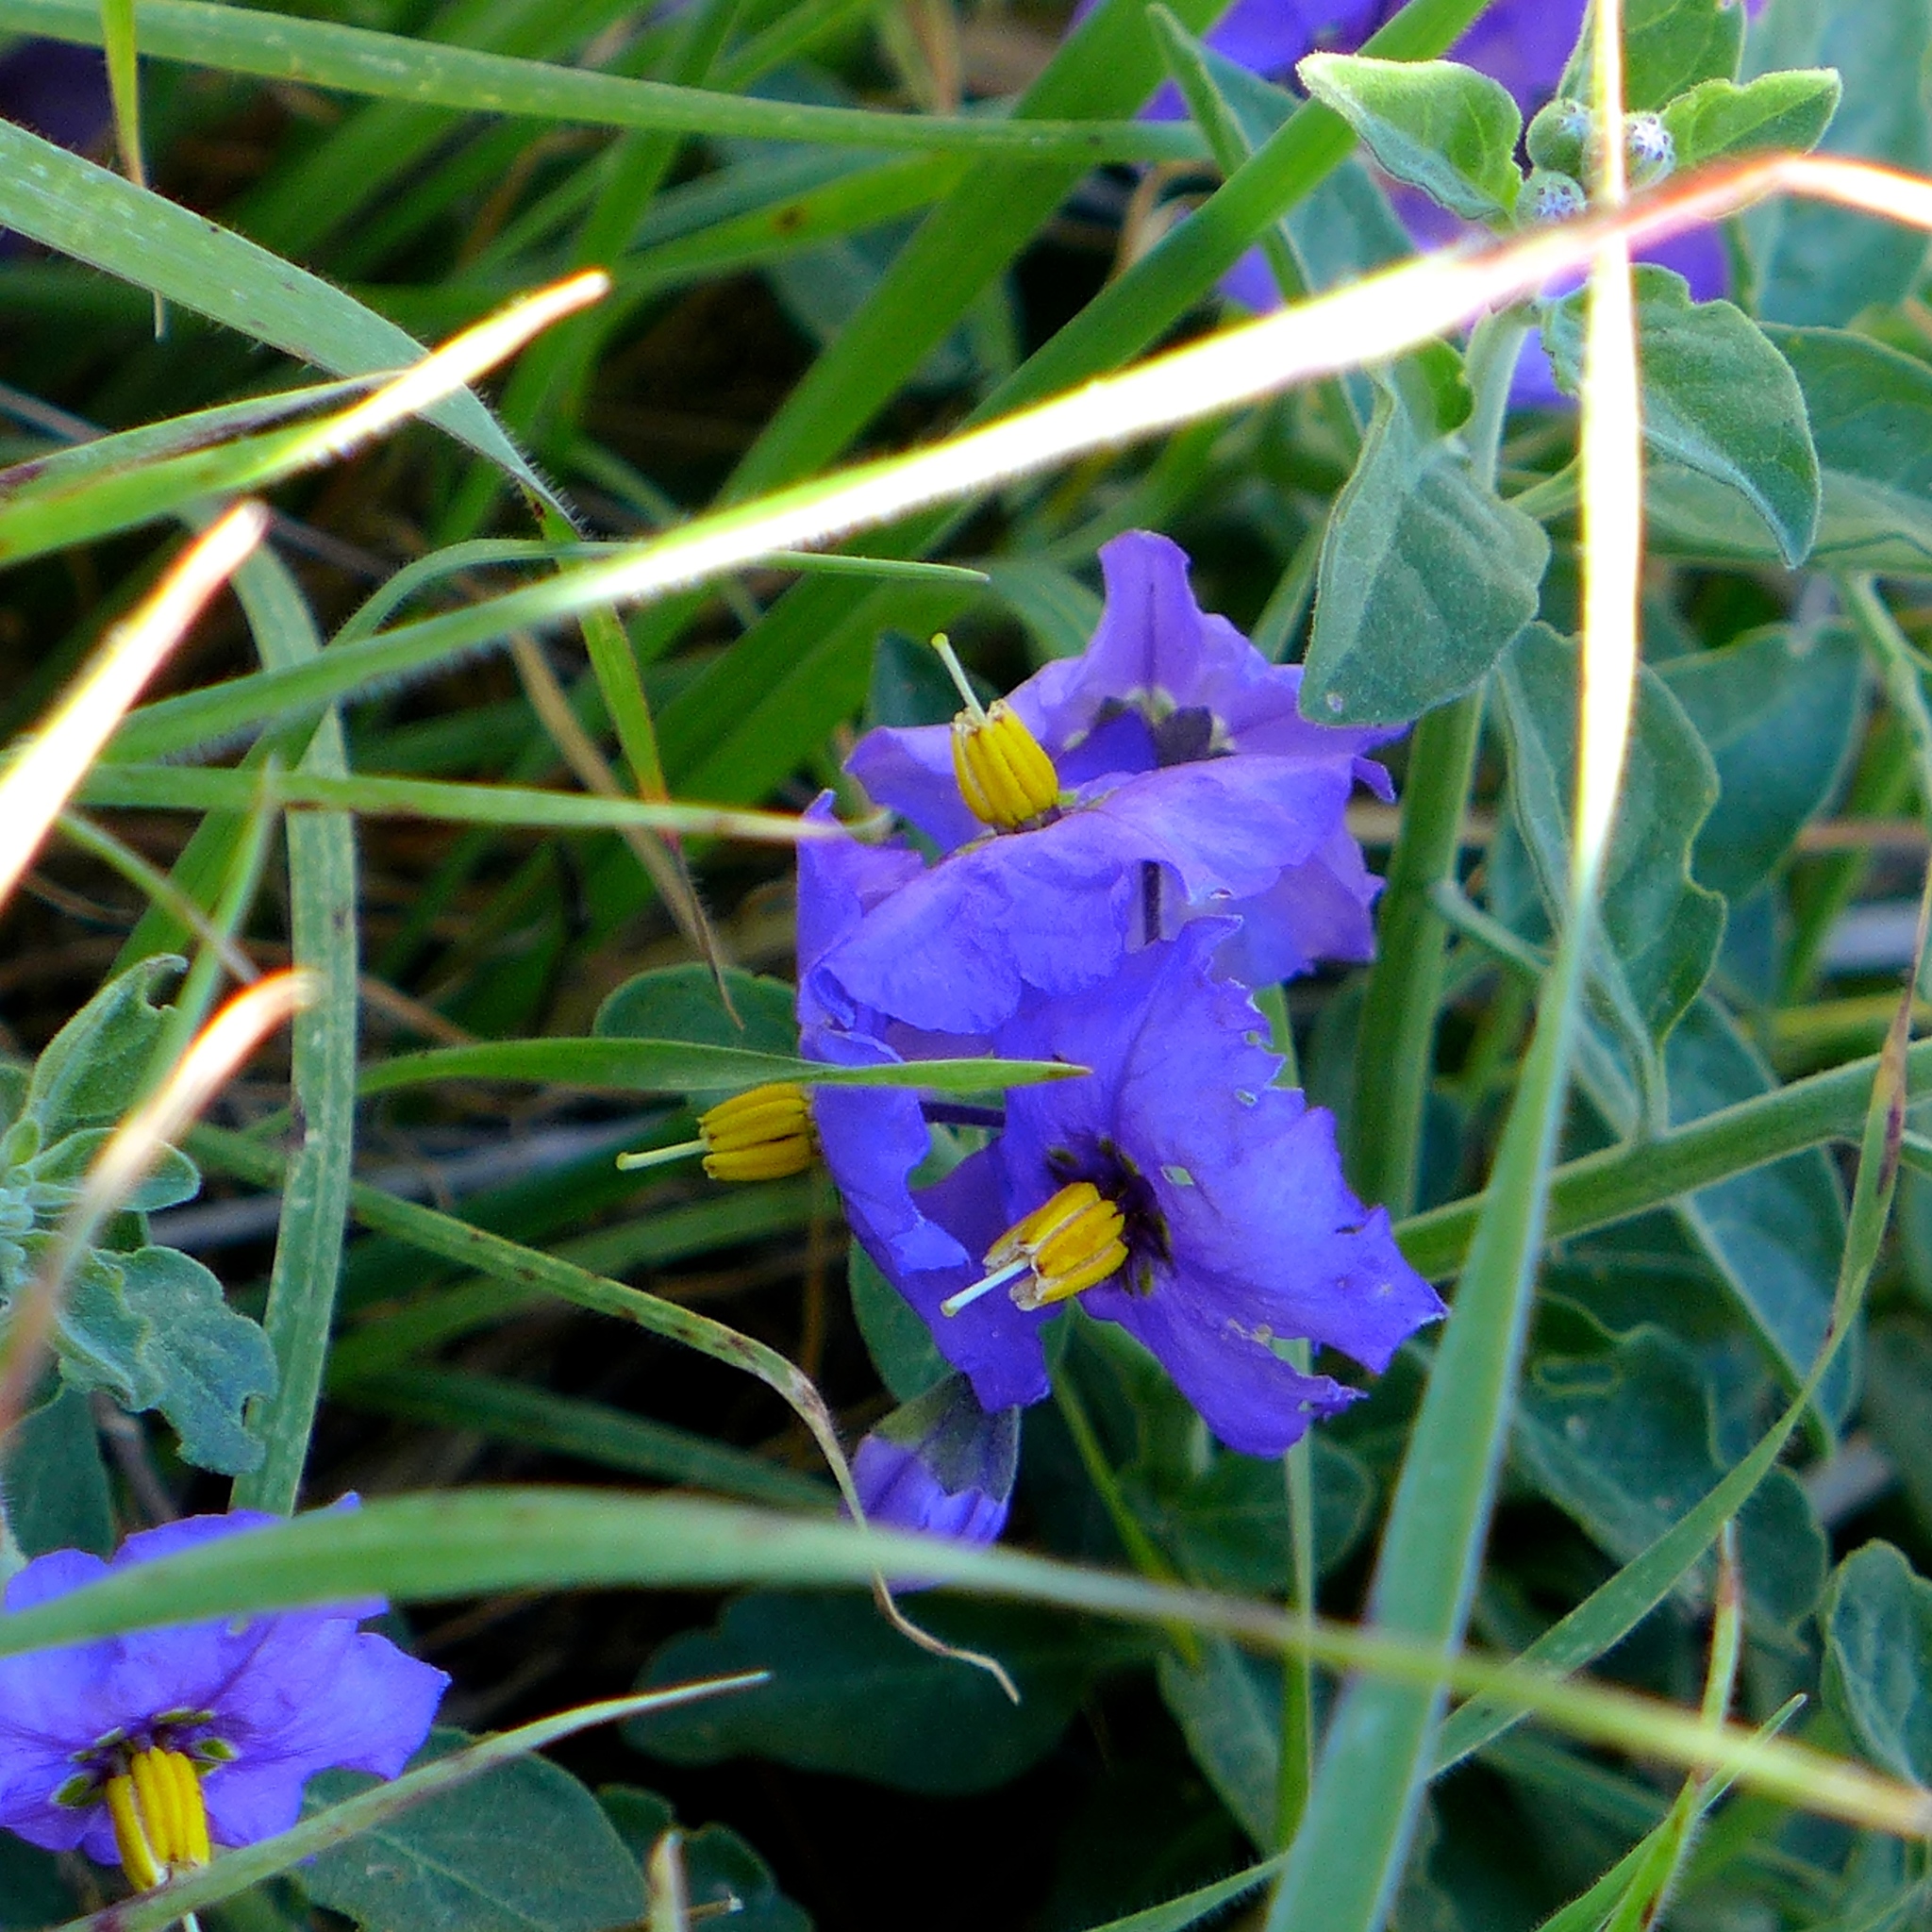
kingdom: Plantae
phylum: Tracheophyta
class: Magnoliopsida
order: Solanales
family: Solanaceae
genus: Solanum
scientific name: Solanum umbelliferum
